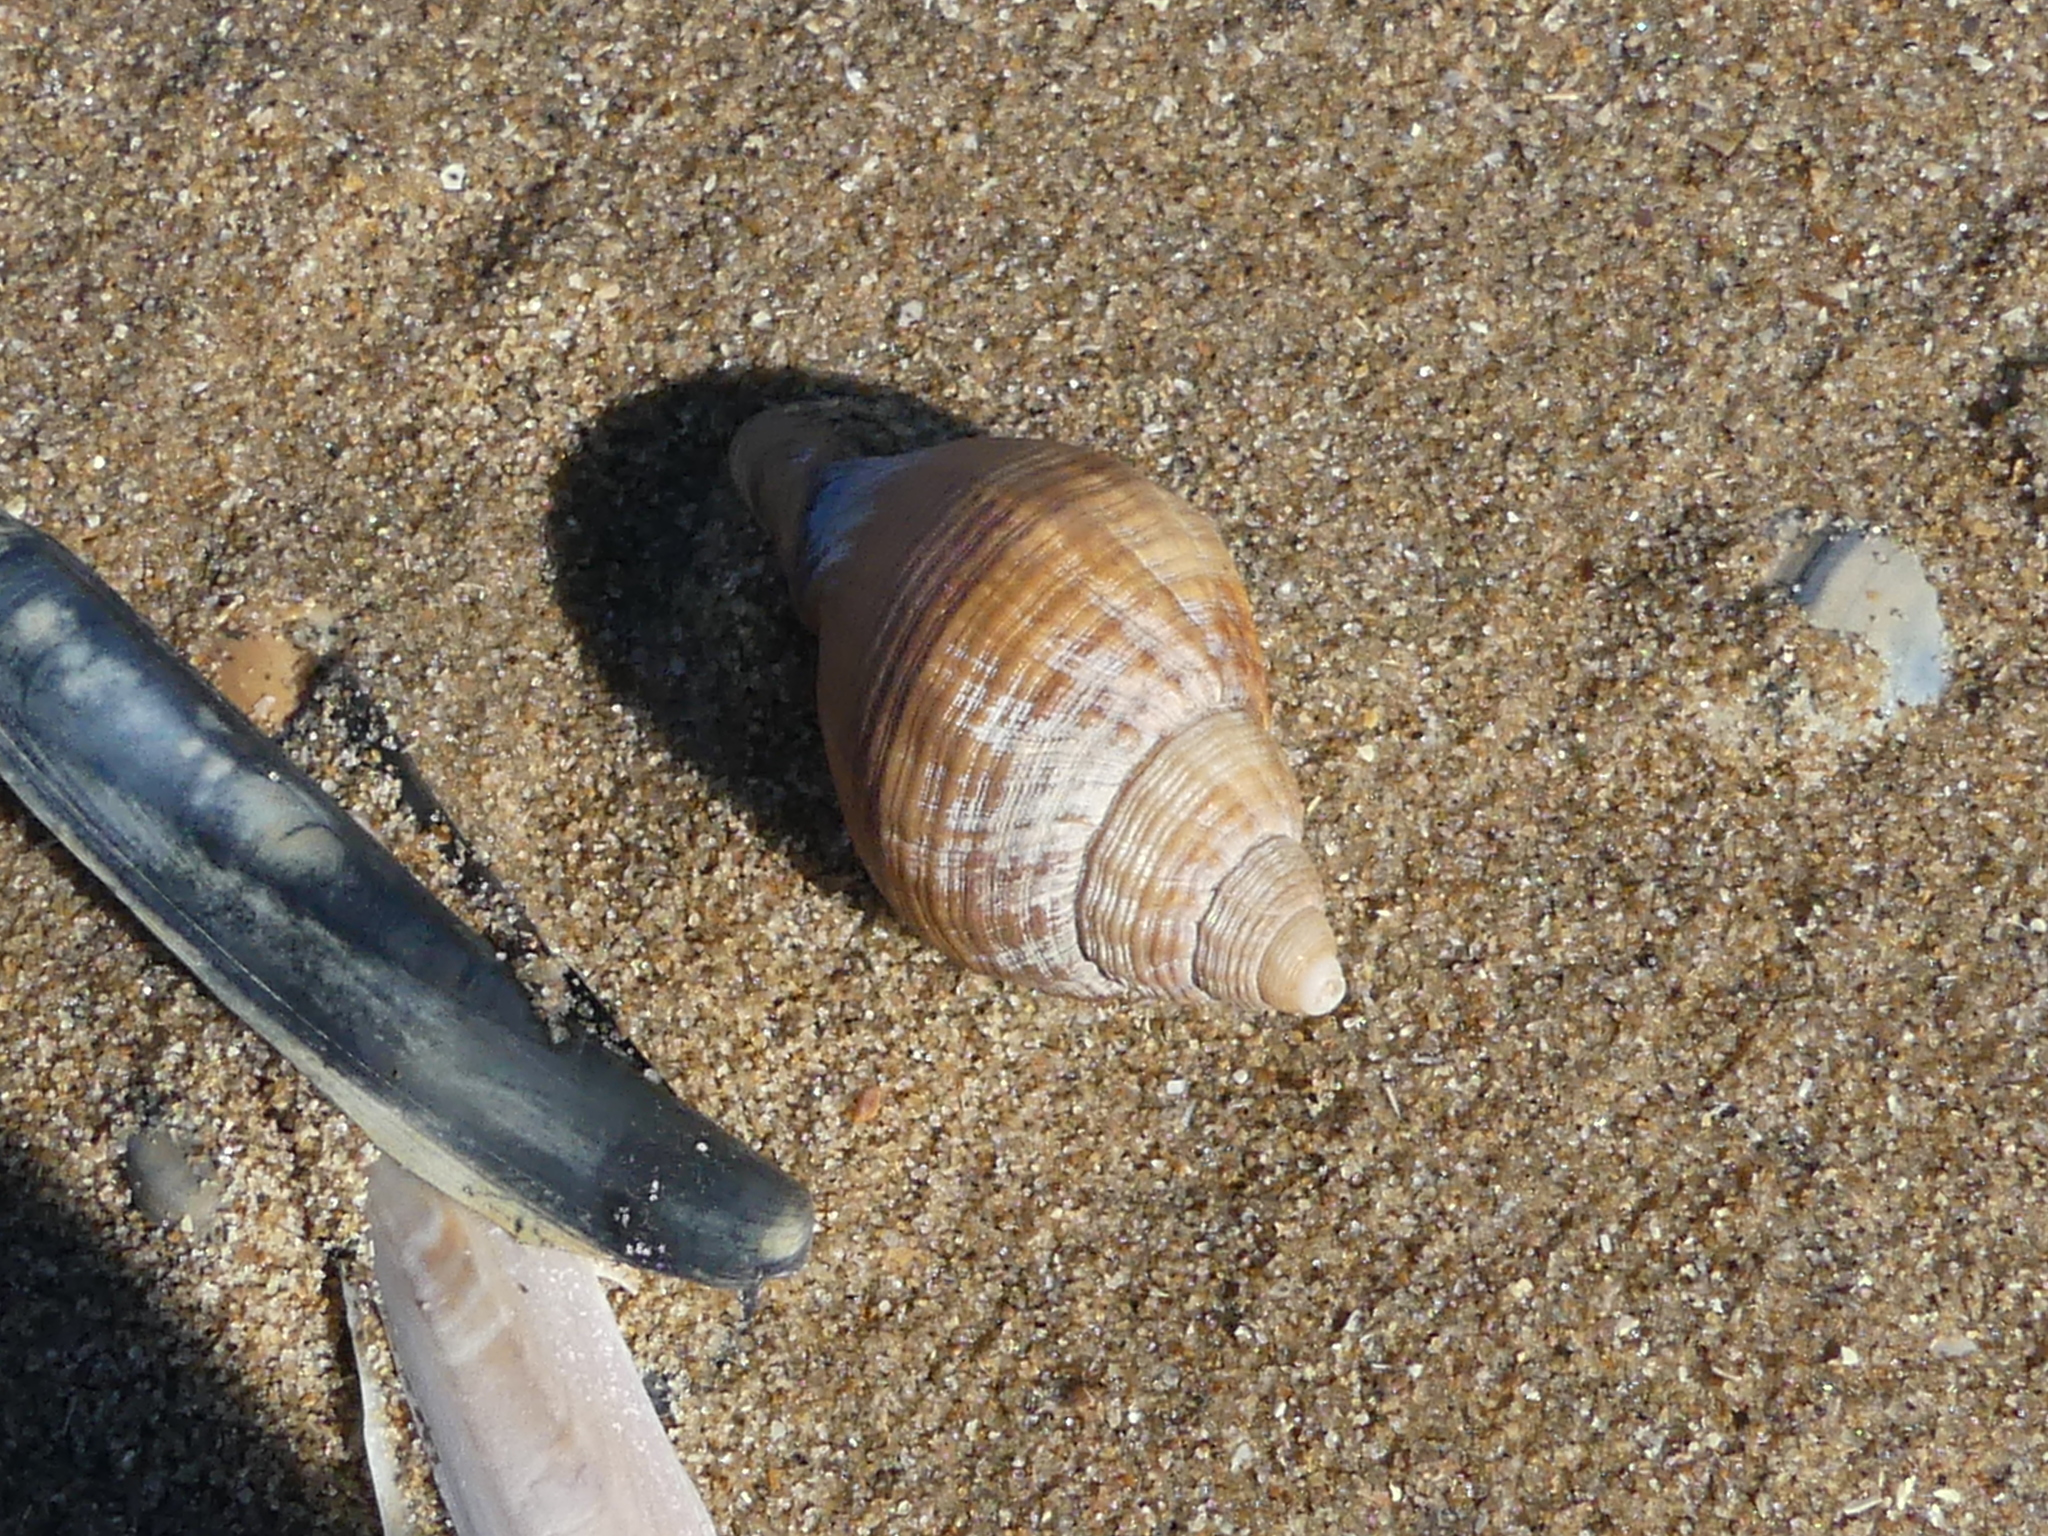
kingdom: Animalia
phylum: Mollusca
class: Gastropoda
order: Neogastropoda
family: Buccinidae
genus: Buccinum
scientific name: Buccinum undatum
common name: Common whelk
